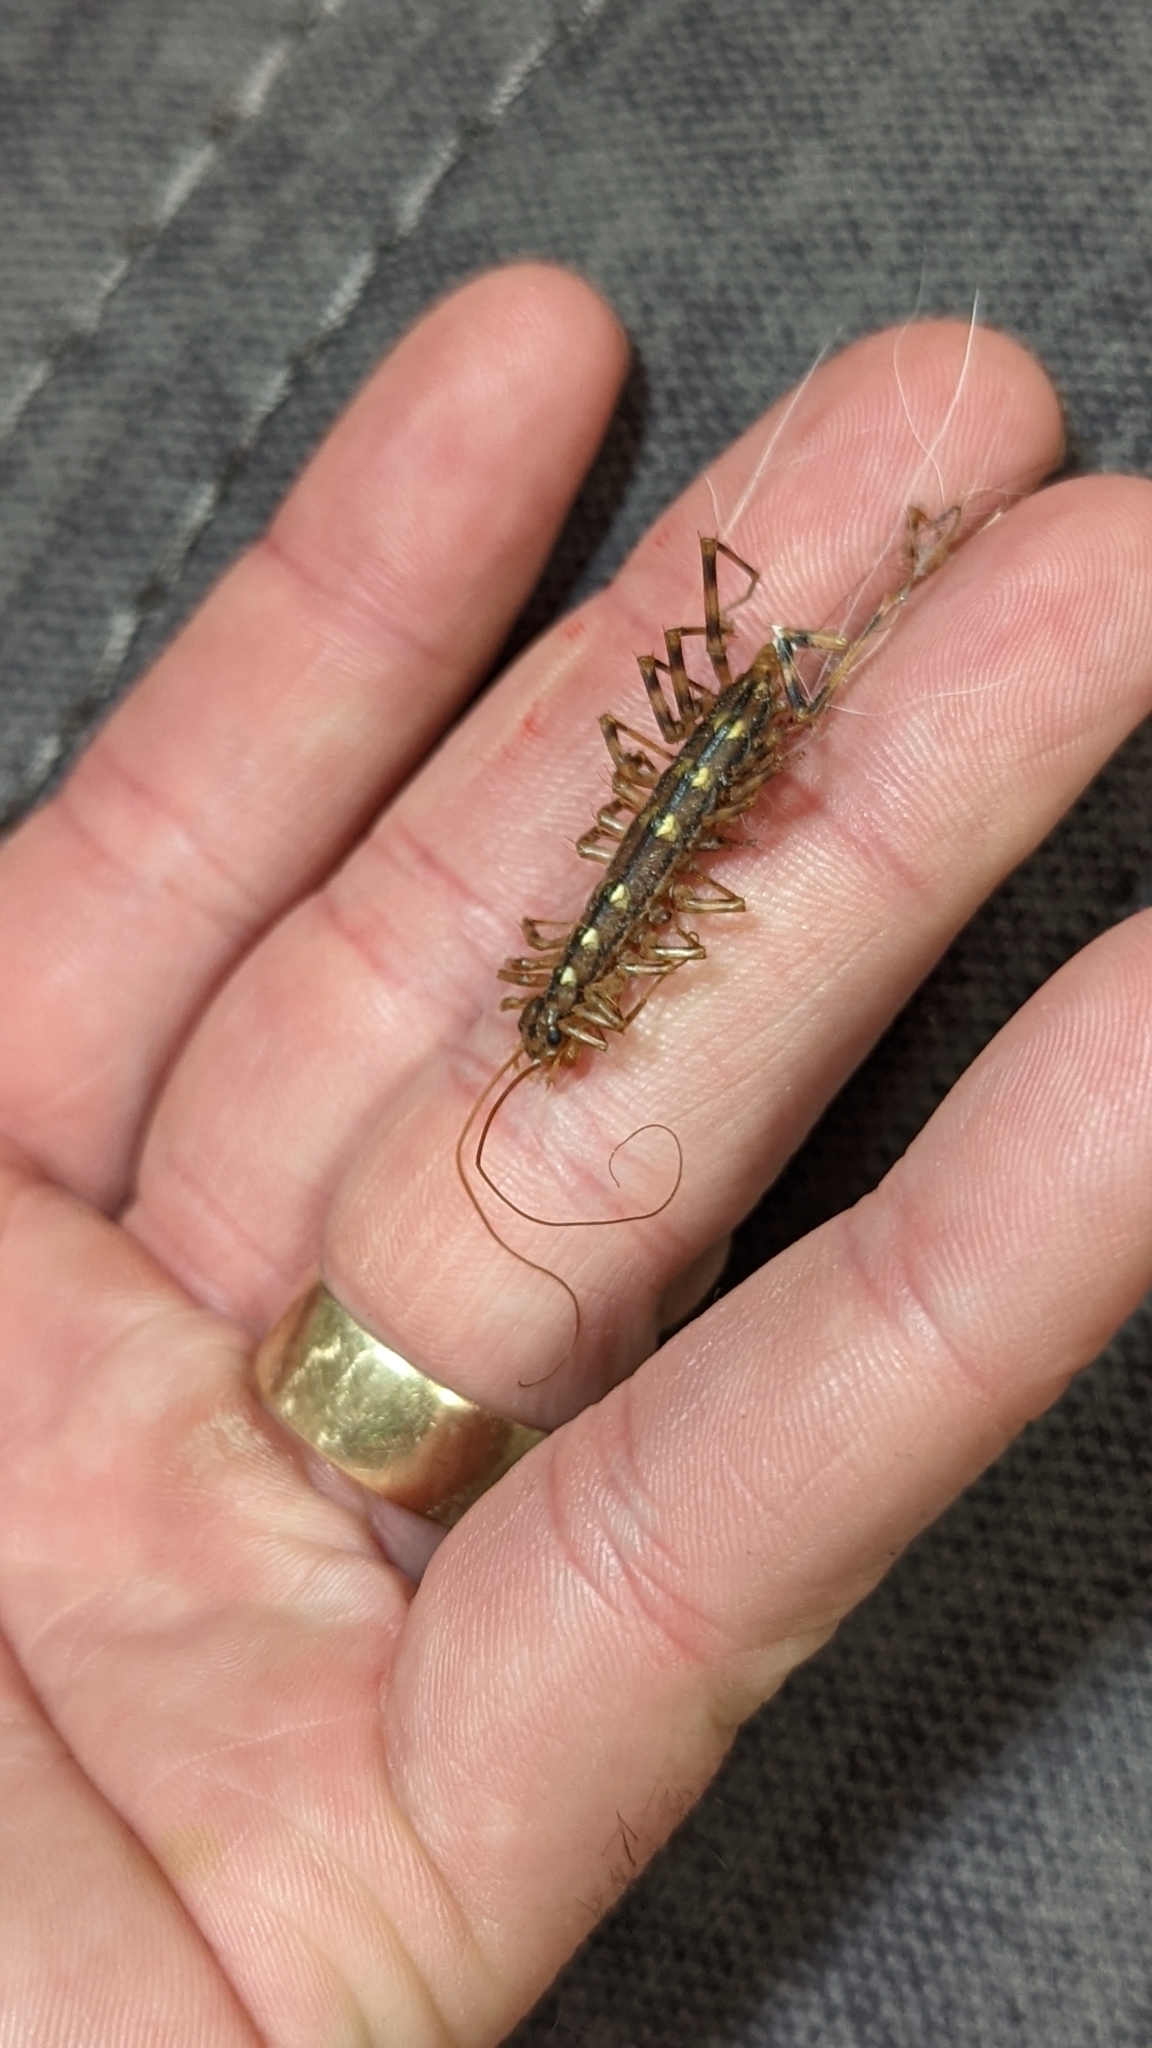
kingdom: Animalia
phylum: Arthropoda
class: Chilopoda
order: Scutigeromorpha
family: Scutigeridae
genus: Scutigera
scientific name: Scutigera coleoptrata
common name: House centipede
